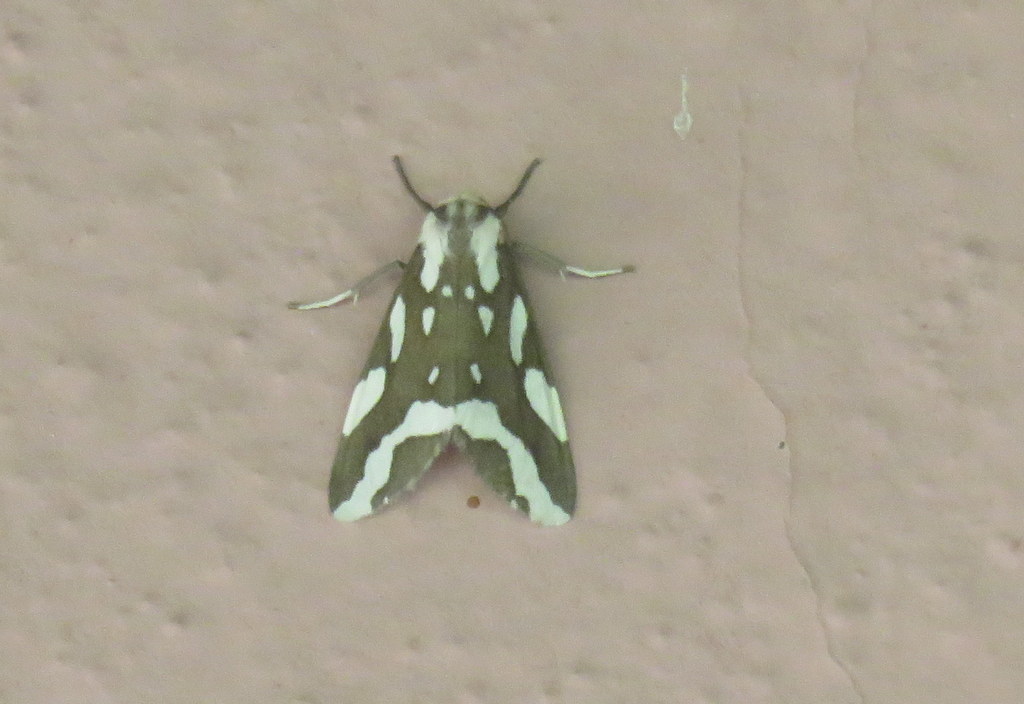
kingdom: Animalia
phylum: Arthropoda
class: Insecta
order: Lepidoptera
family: Erebidae
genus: Tessellota
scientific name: Tessellota cancellata
